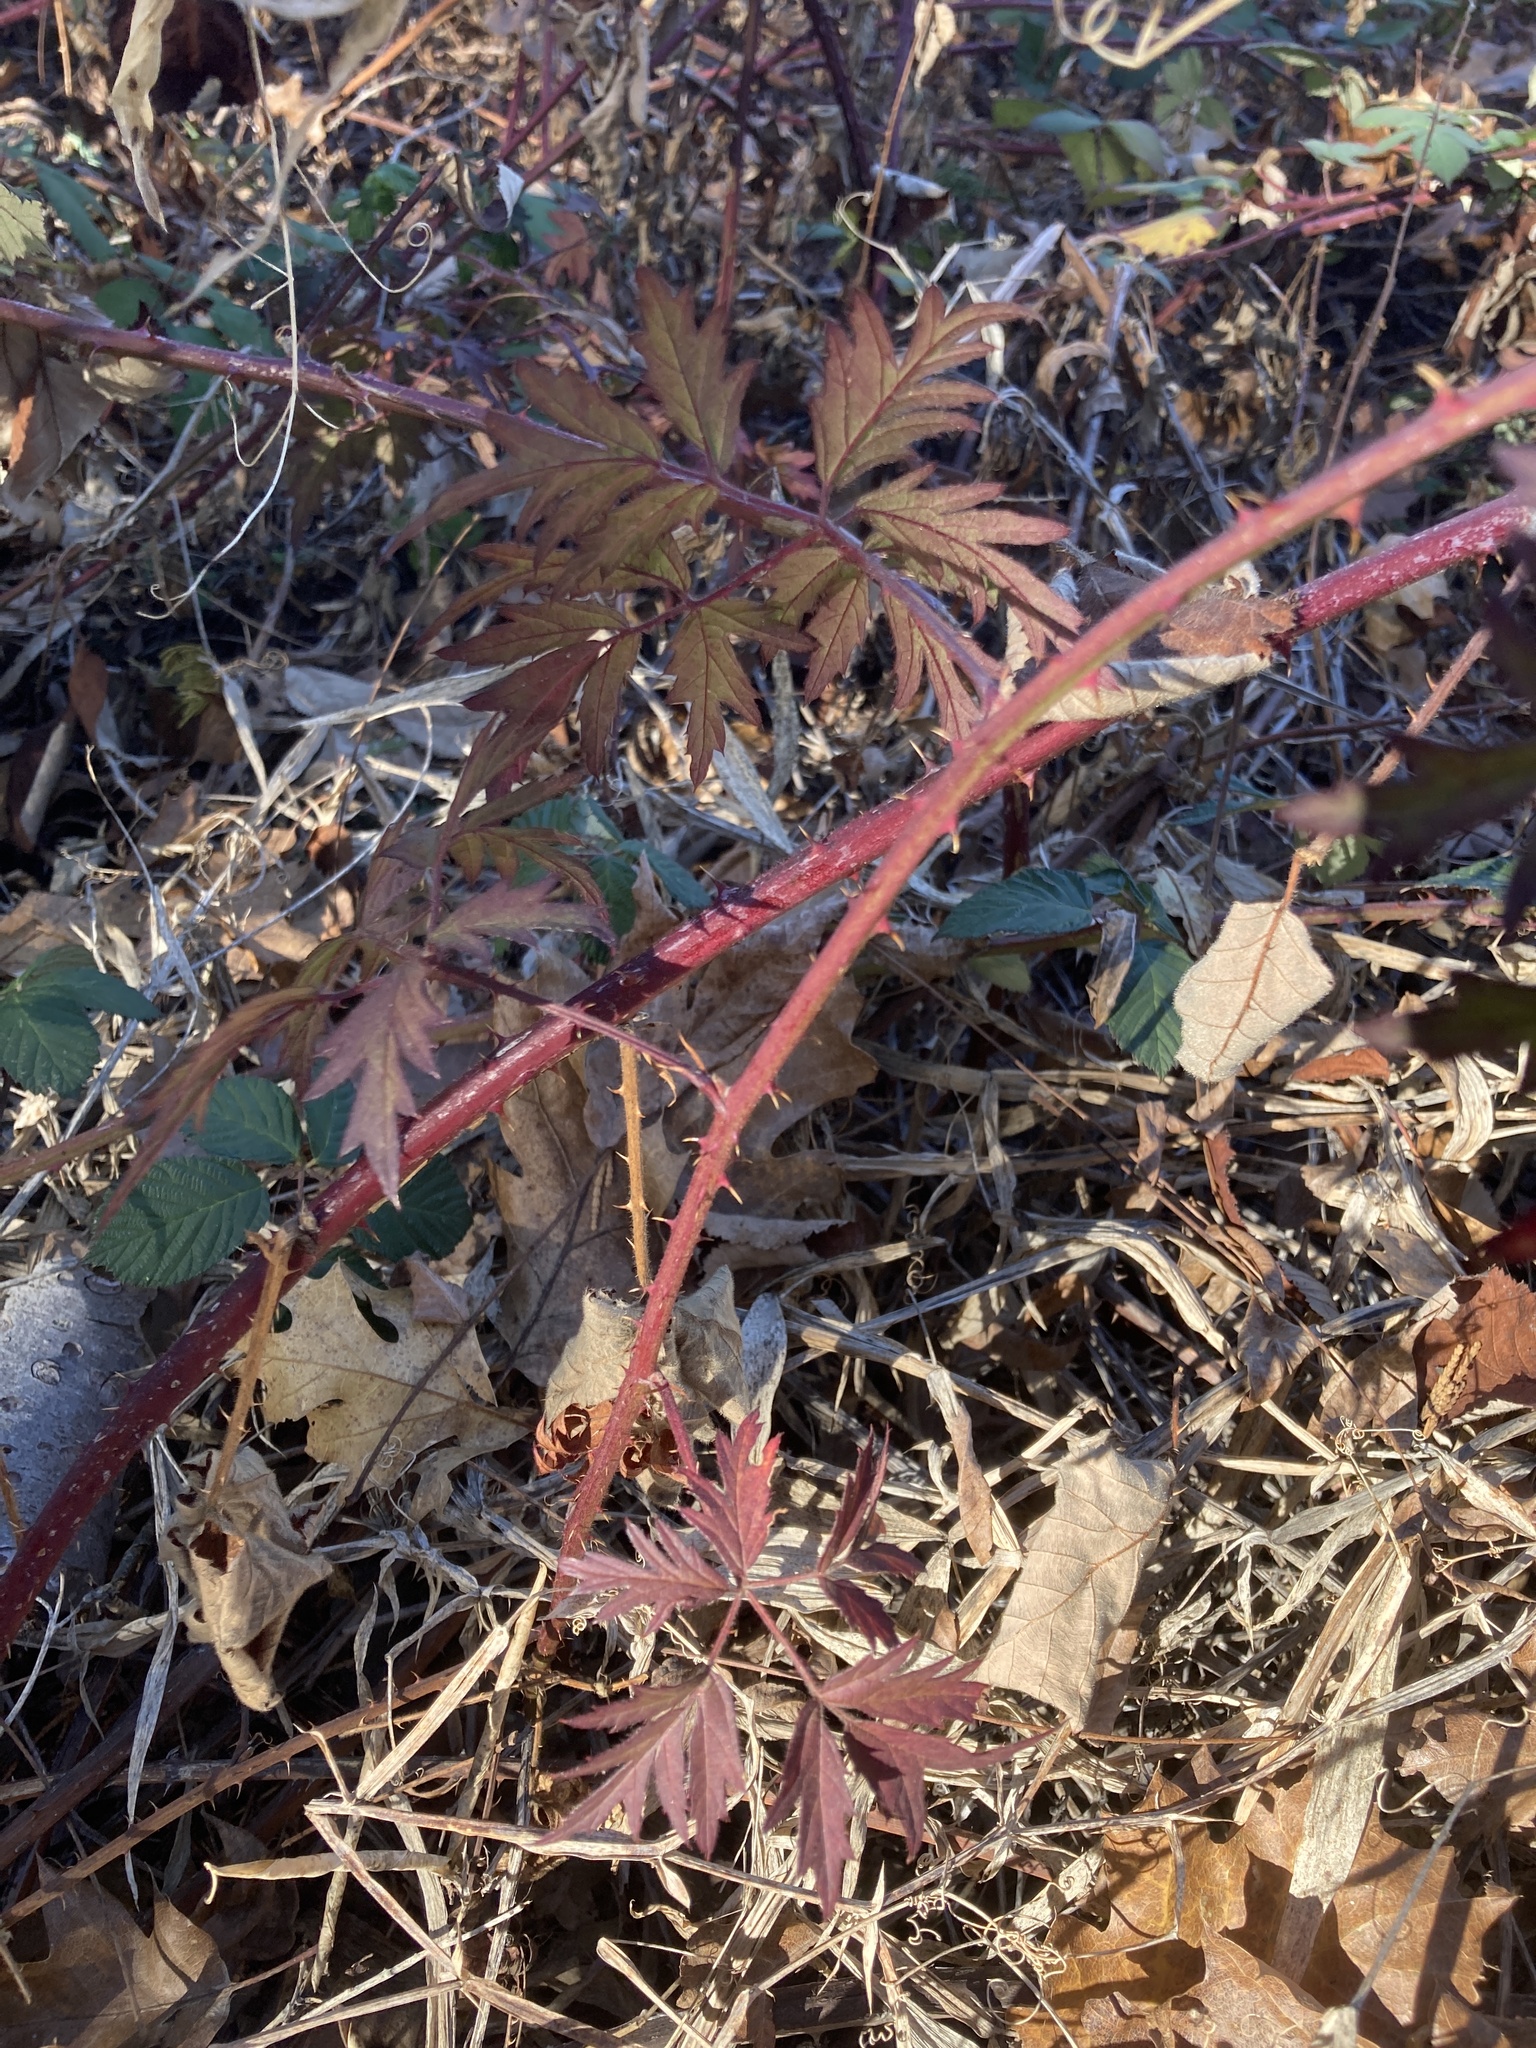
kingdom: Plantae
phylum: Tracheophyta
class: Magnoliopsida
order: Rosales
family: Rosaceae
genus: Rubus
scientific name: Rubus laciniatus
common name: Evergreen blackberry
